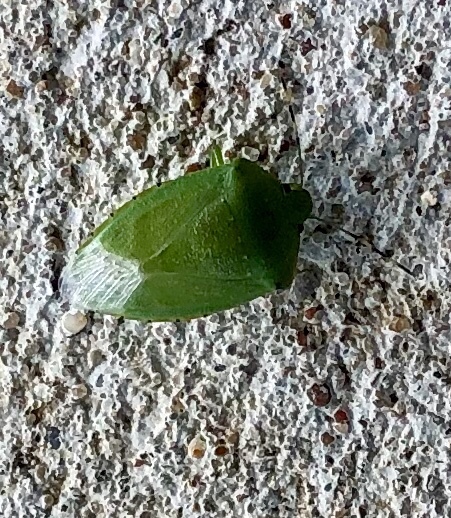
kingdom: Animalia
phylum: Arthropoda
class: Insecta
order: Hemiptera
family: Pentatomidae
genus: Chinavia
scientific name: Chinavia hilaris
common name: Green stink bug
